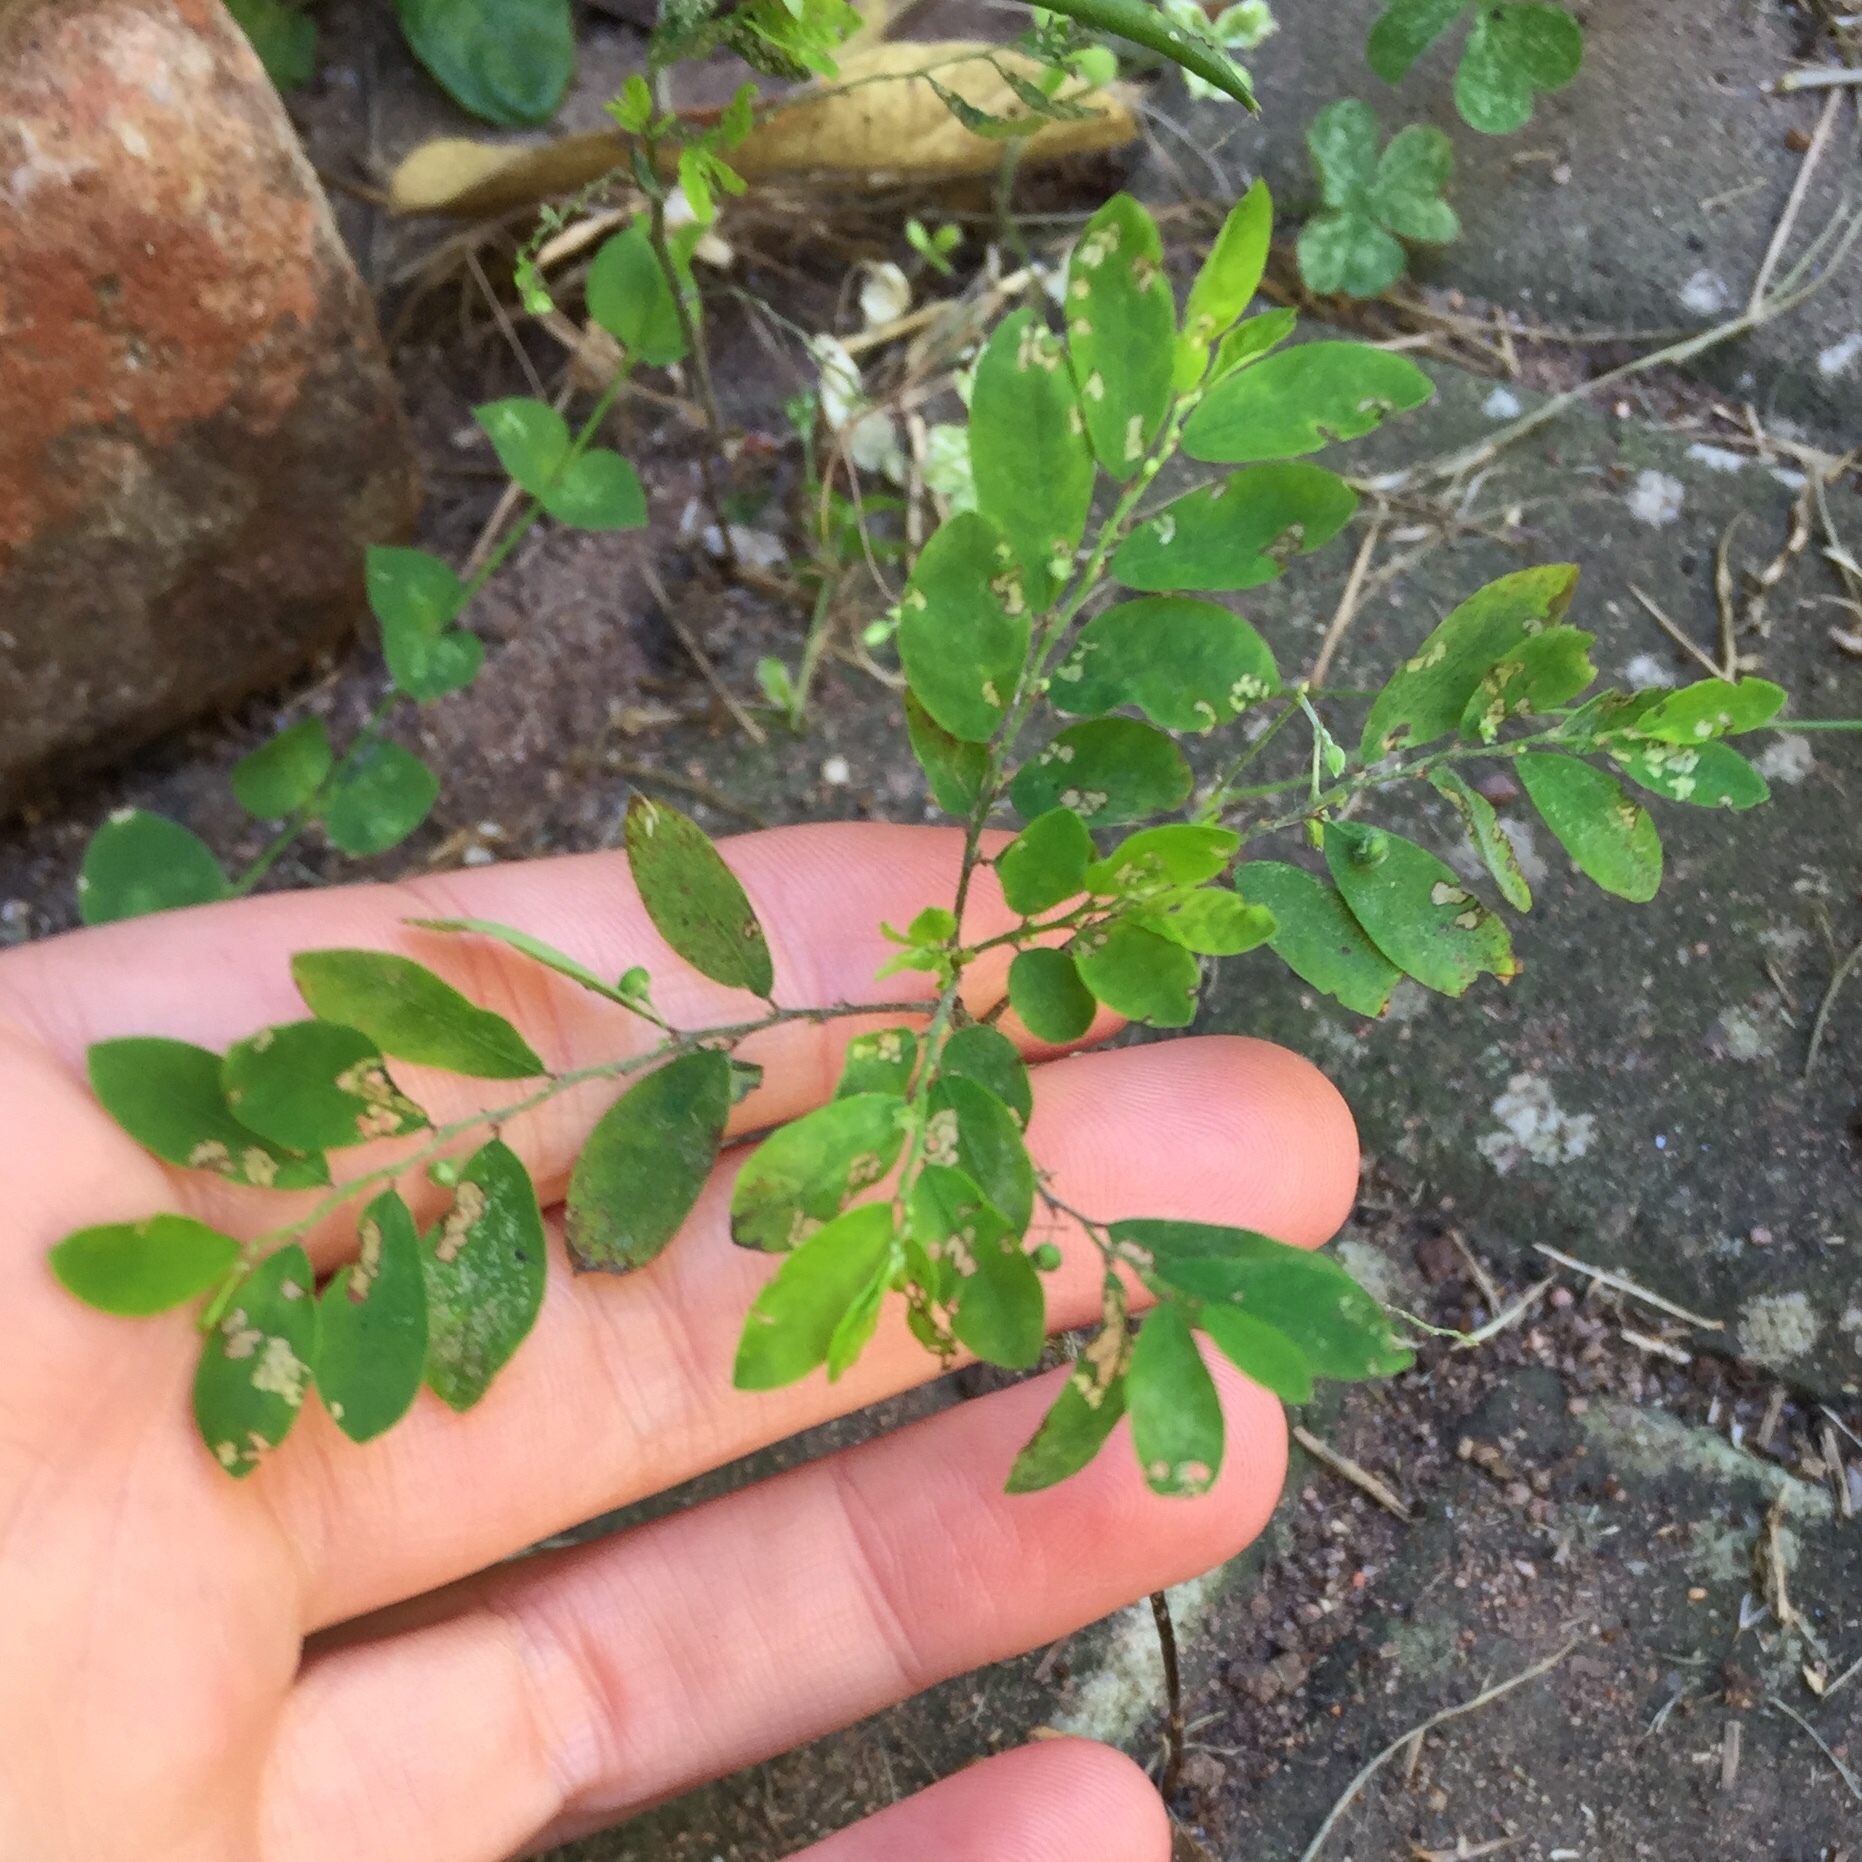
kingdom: Plantae
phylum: Tracheophyta
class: Magnoliopsida
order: Malpighiales
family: Phyllanthaceae
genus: Phyllanthus
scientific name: Phyllanthus tenellus
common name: Mascarene island leaf-flower
